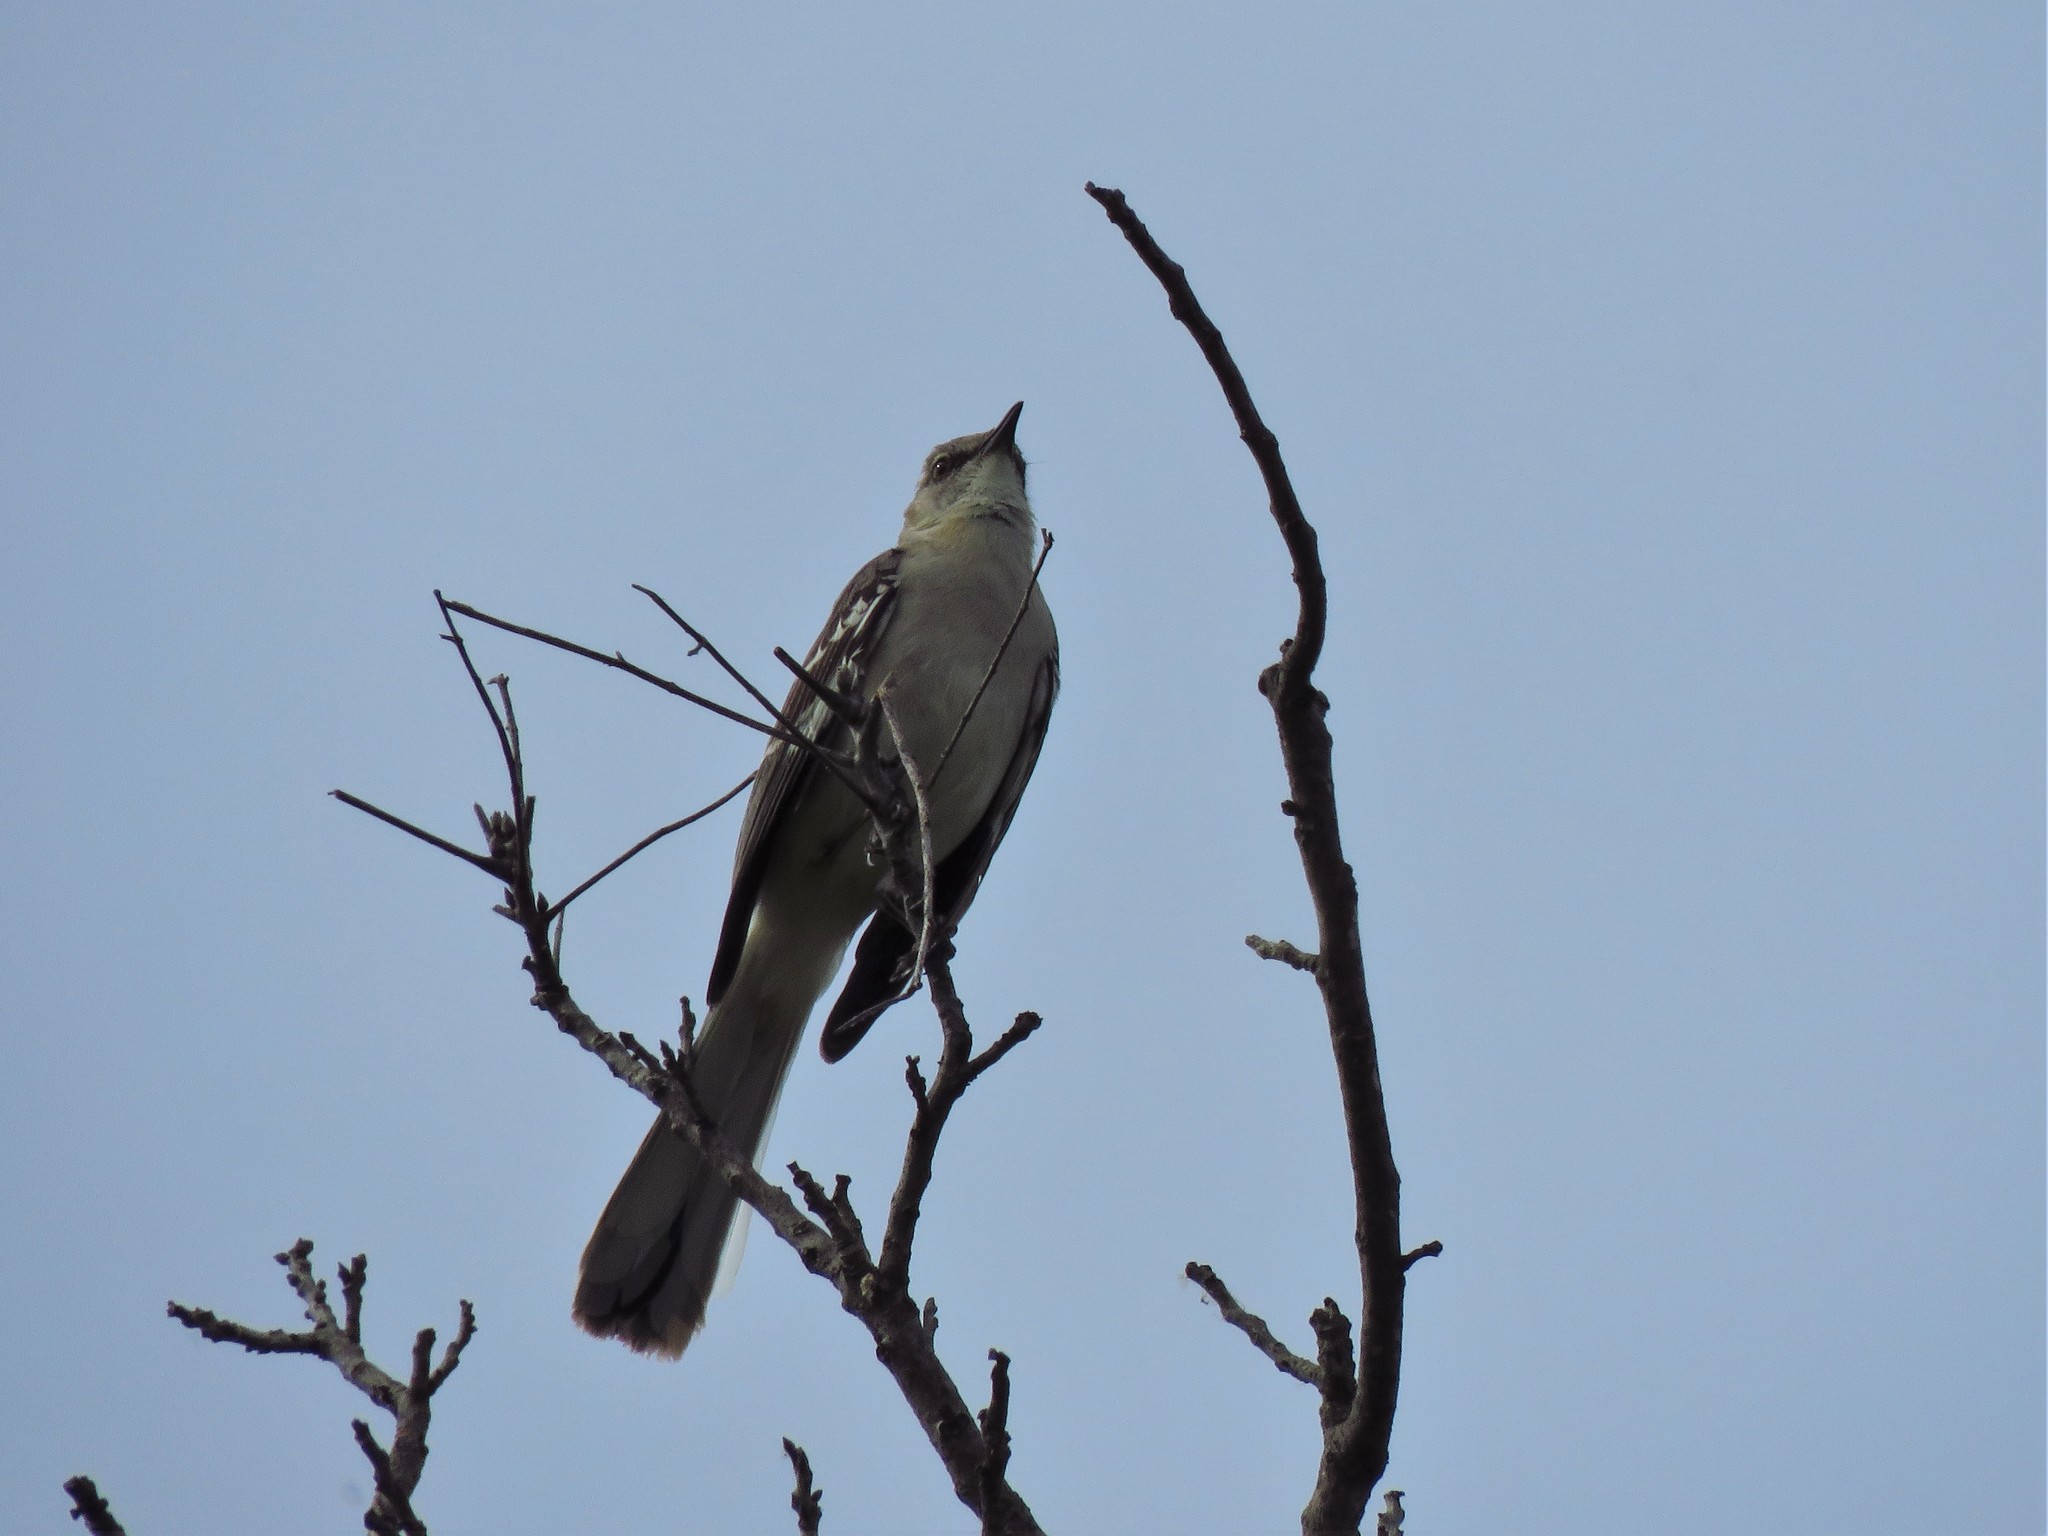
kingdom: Animalia
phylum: Chordata
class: Aves
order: Passeriformes
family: Mimidae
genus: Mimus
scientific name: Mimus polyglottos
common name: Northern mockingbird
